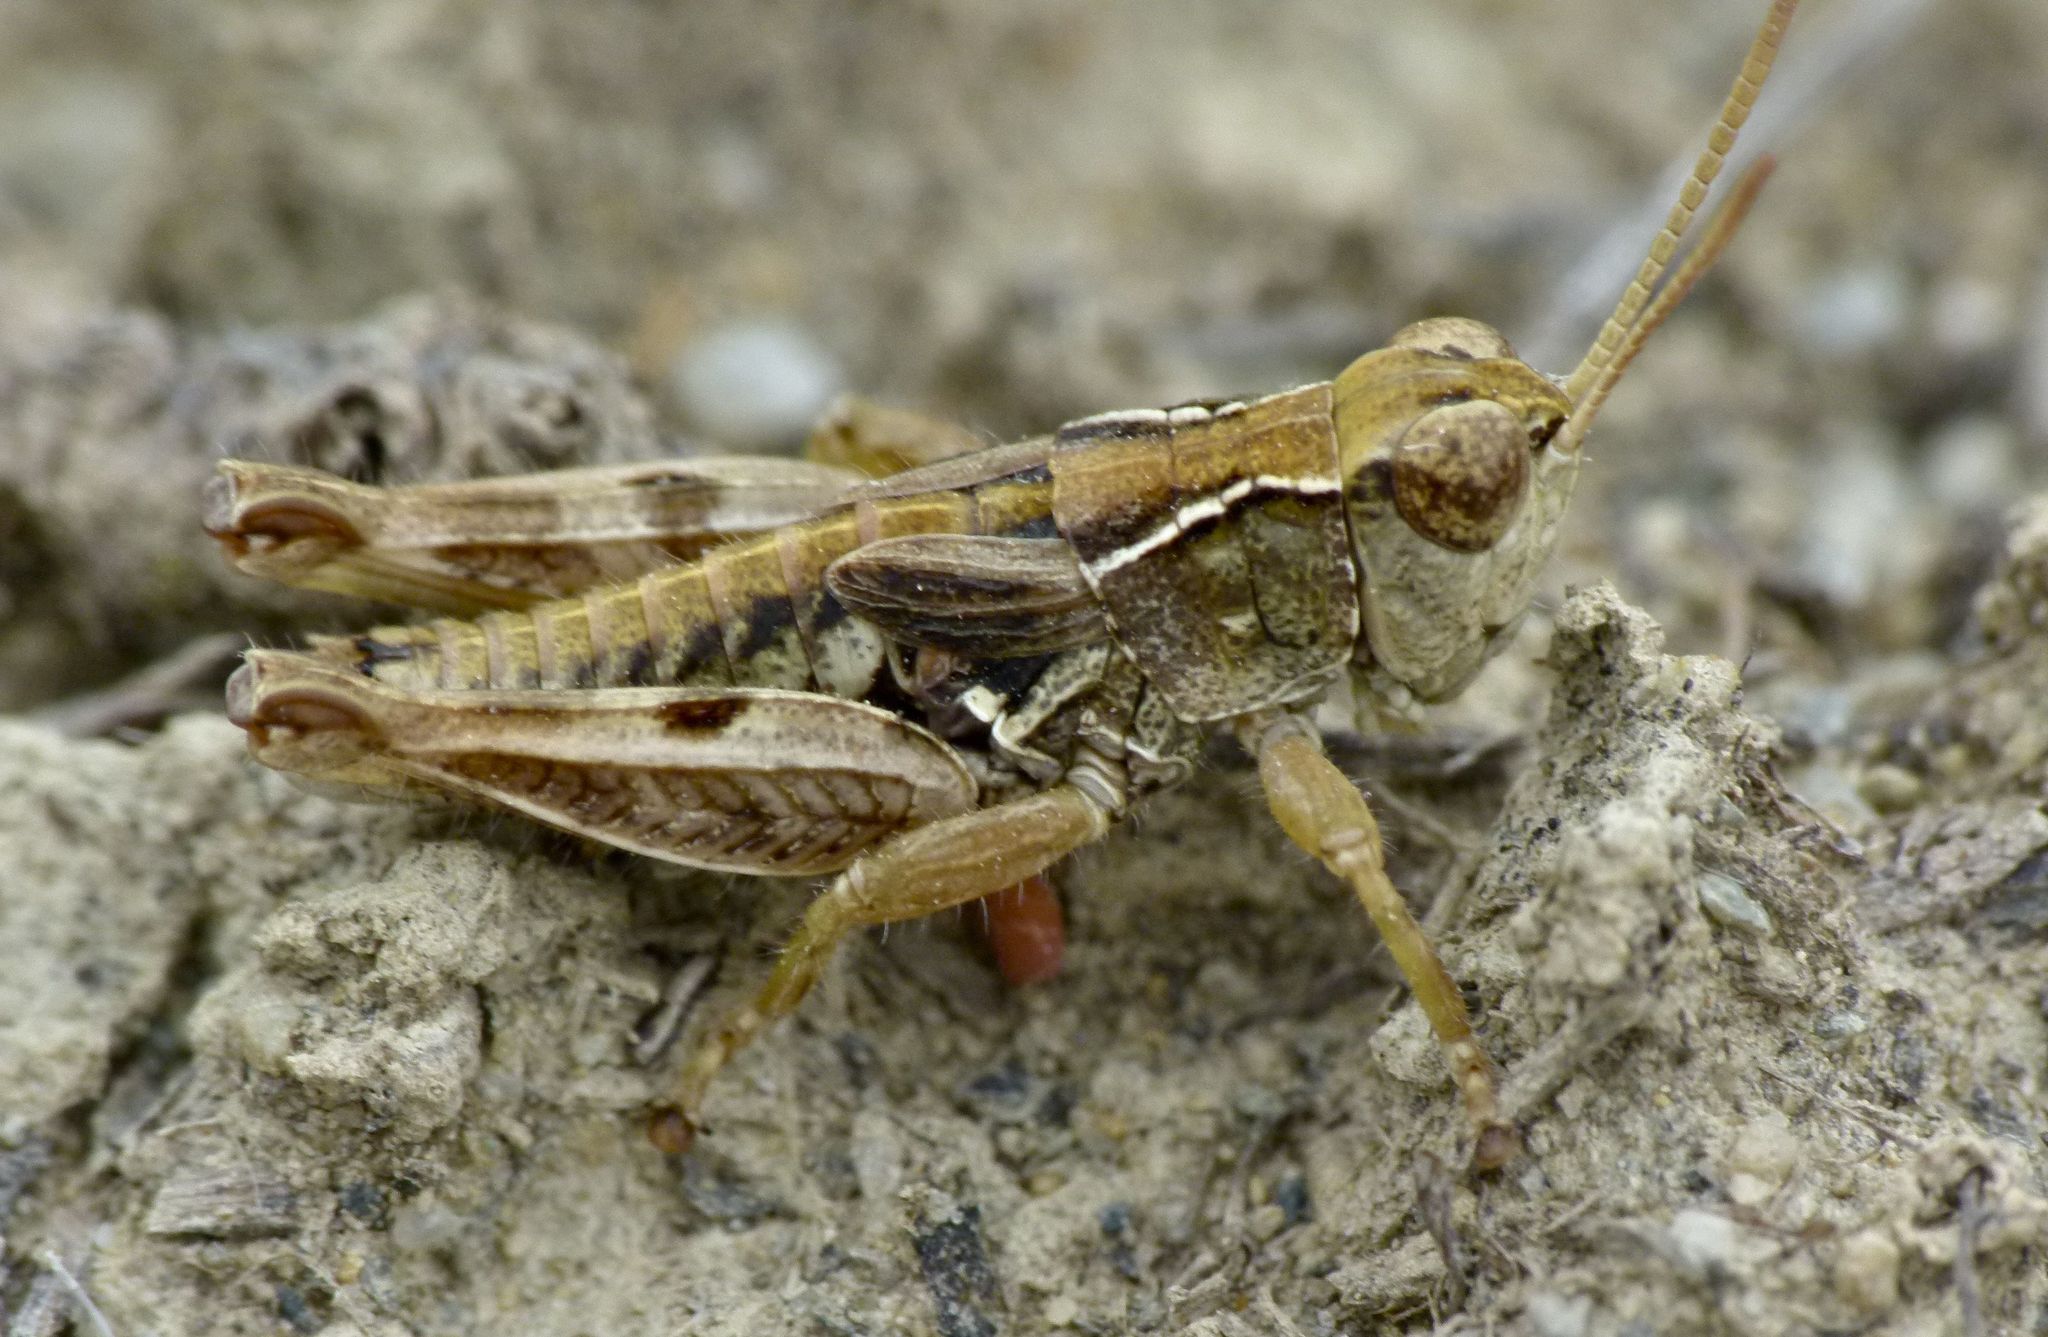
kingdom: Animalia
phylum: Arthropoda
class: Insecta
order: Orthoptera
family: Acrididae
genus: Phaulacridium
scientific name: Phaulacridium otagoense
